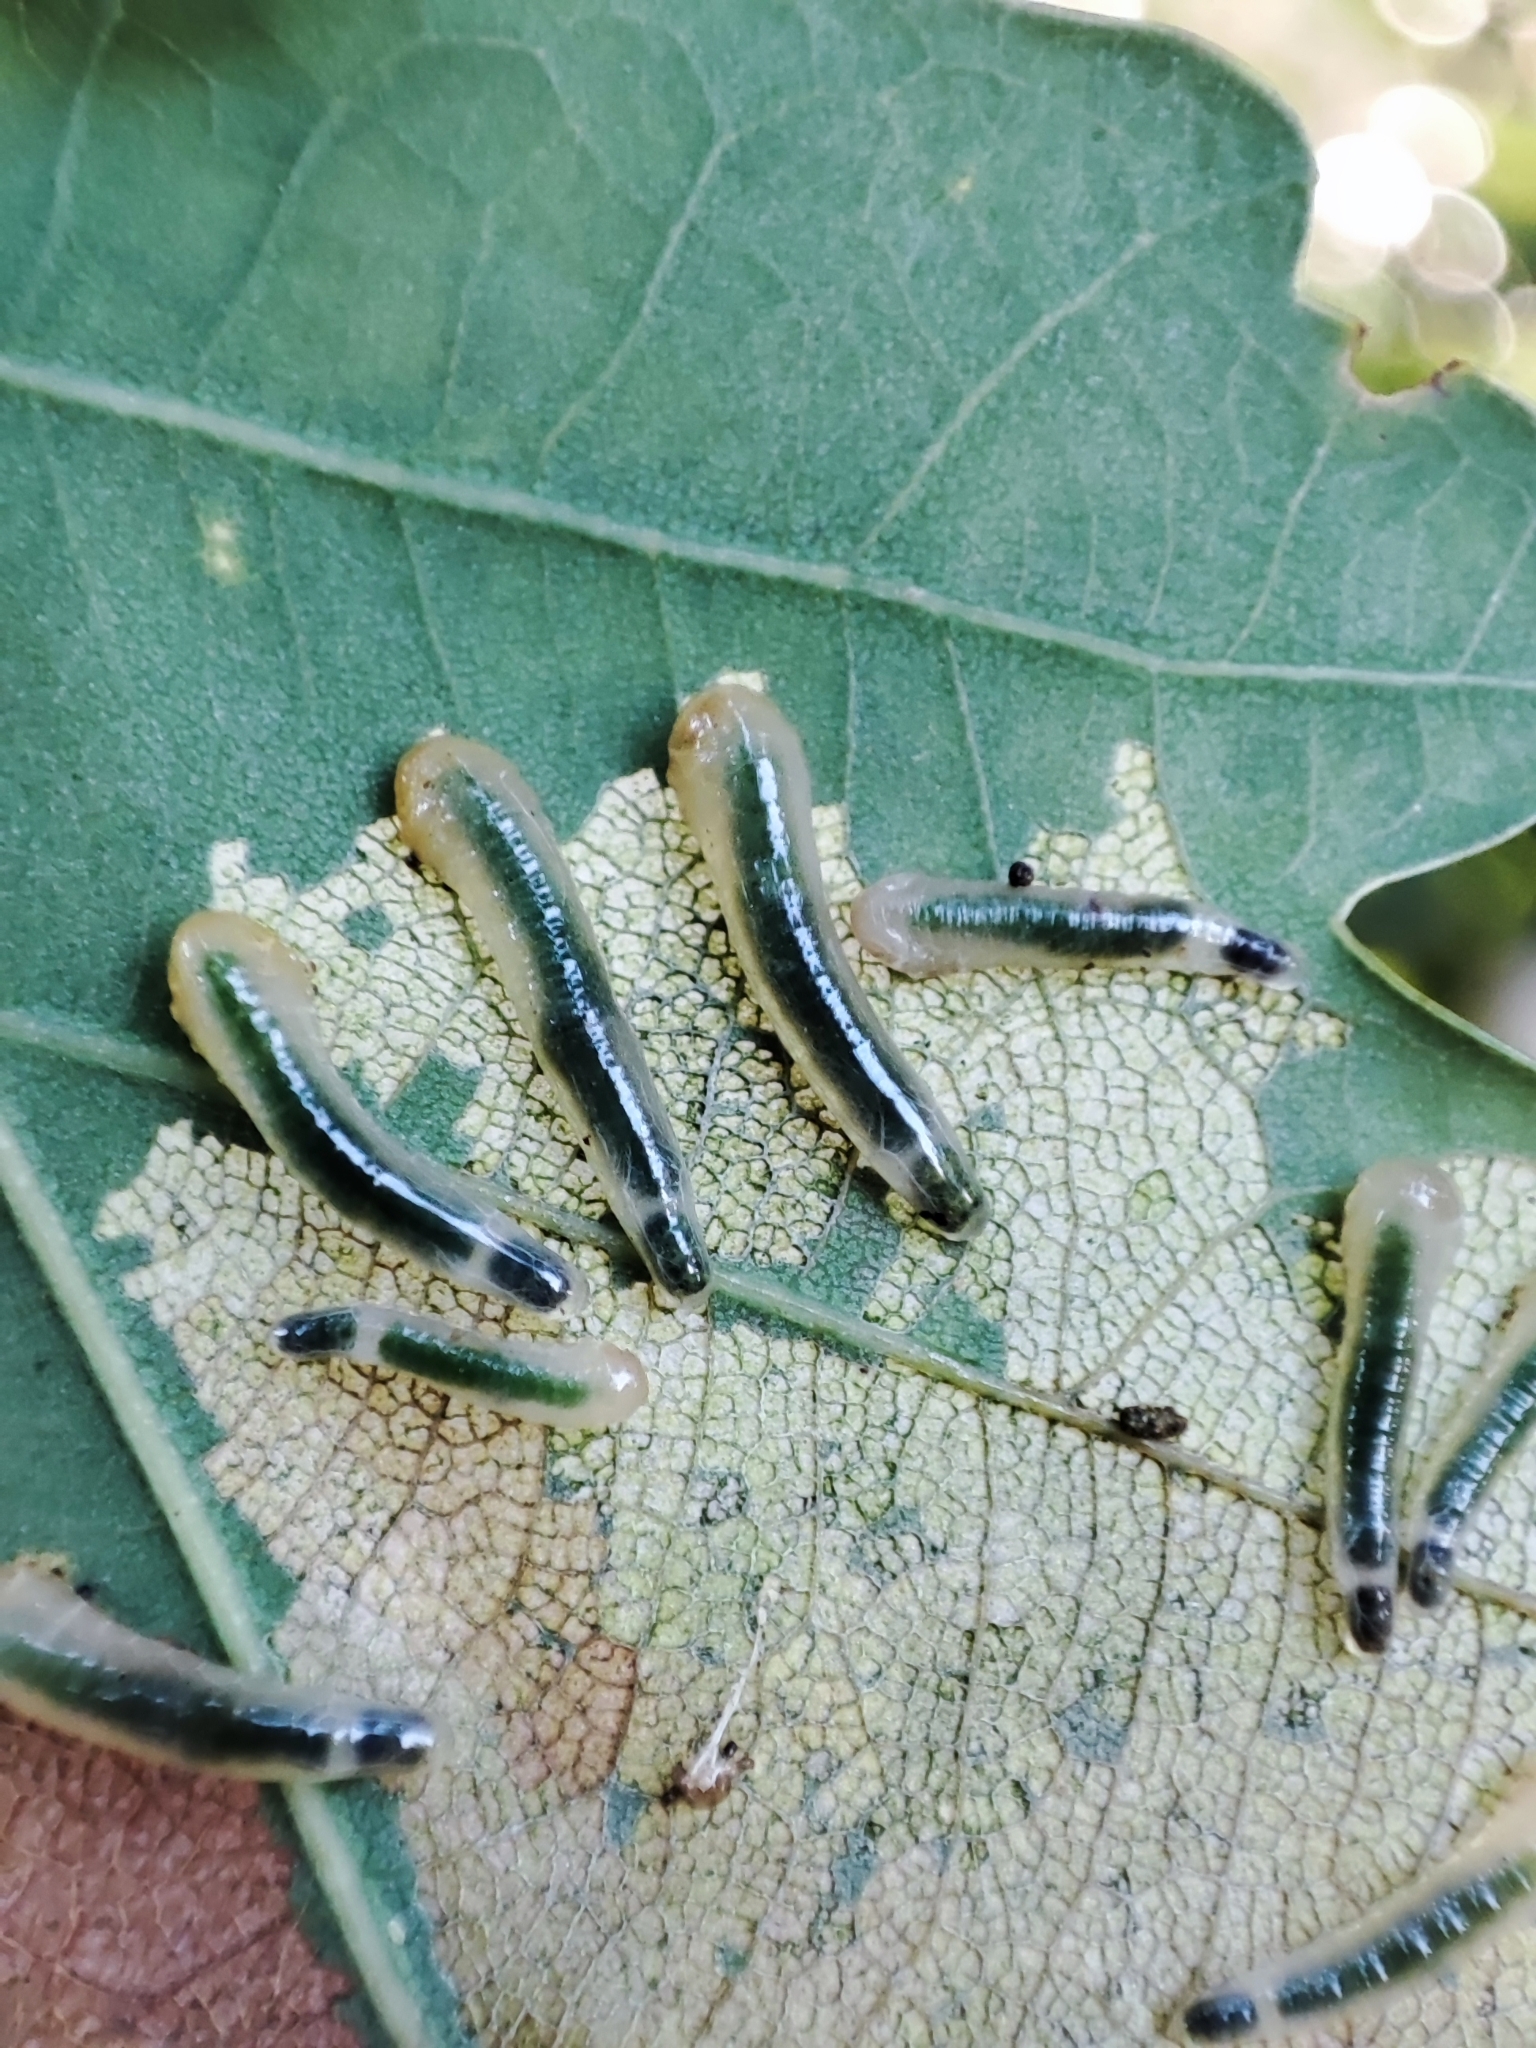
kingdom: Animalia
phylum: Arthropoda
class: Insecta
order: Hymenoptera
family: Tenthredinidae
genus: Caliroa
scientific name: Caliroa annulipes
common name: Wasp
